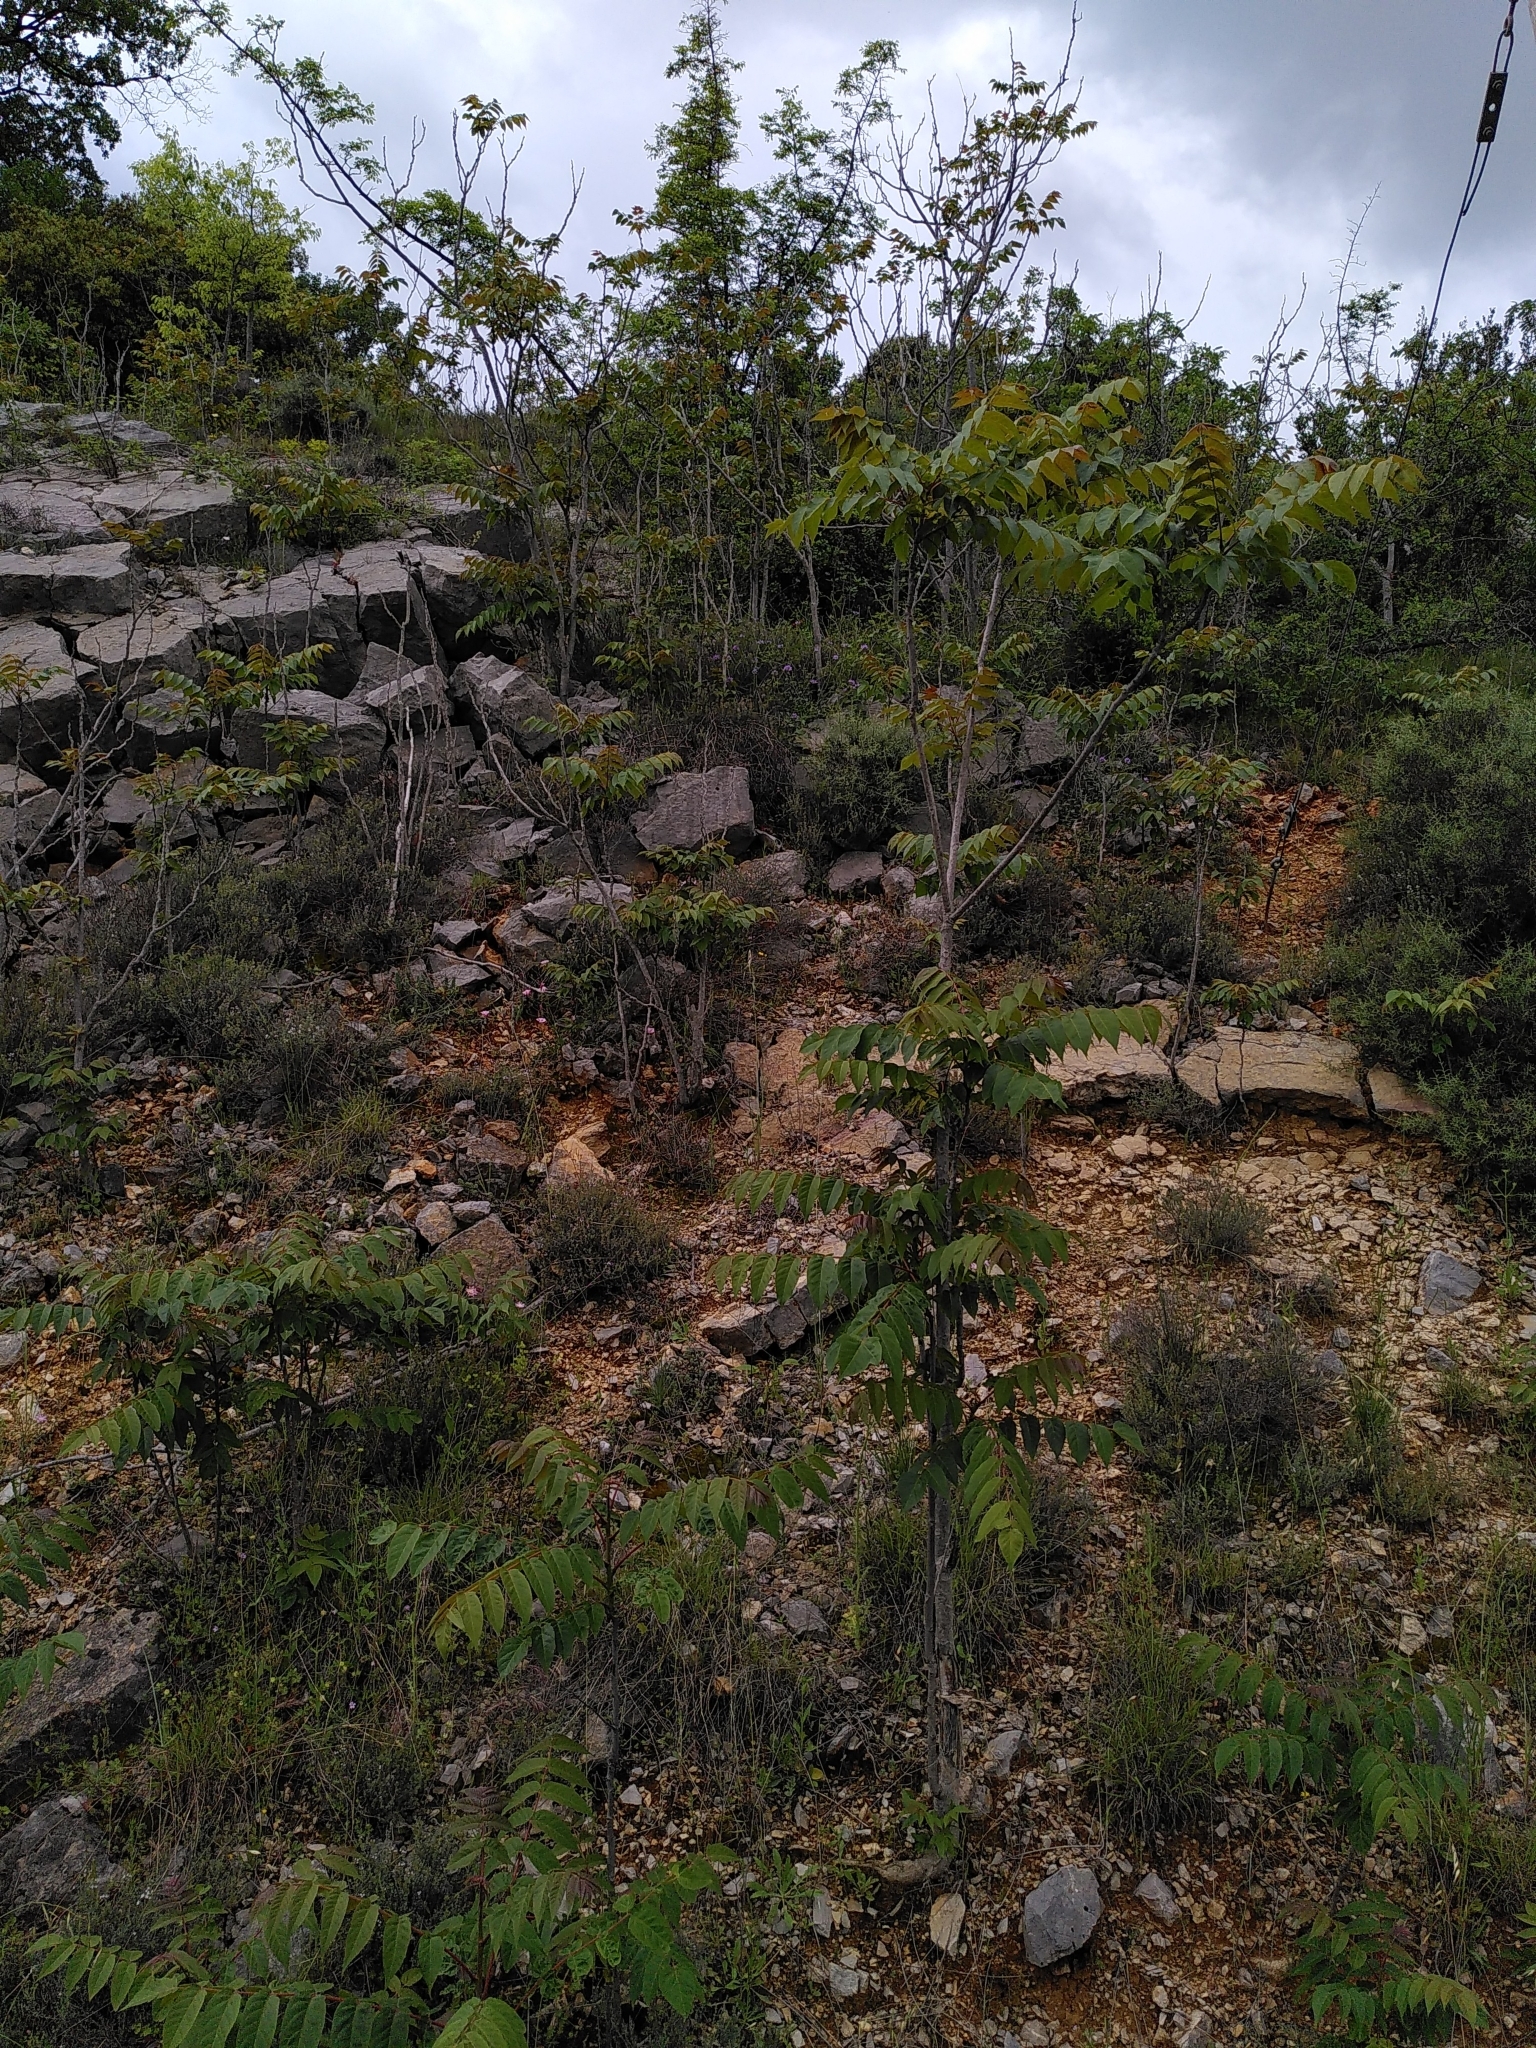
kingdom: Plantae
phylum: Tracheophyta
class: Magnoliopsida
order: Sapindales
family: Simaroubaceae
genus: Ailanthus
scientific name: Ailanthus altissima
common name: Tree-of-heaven
